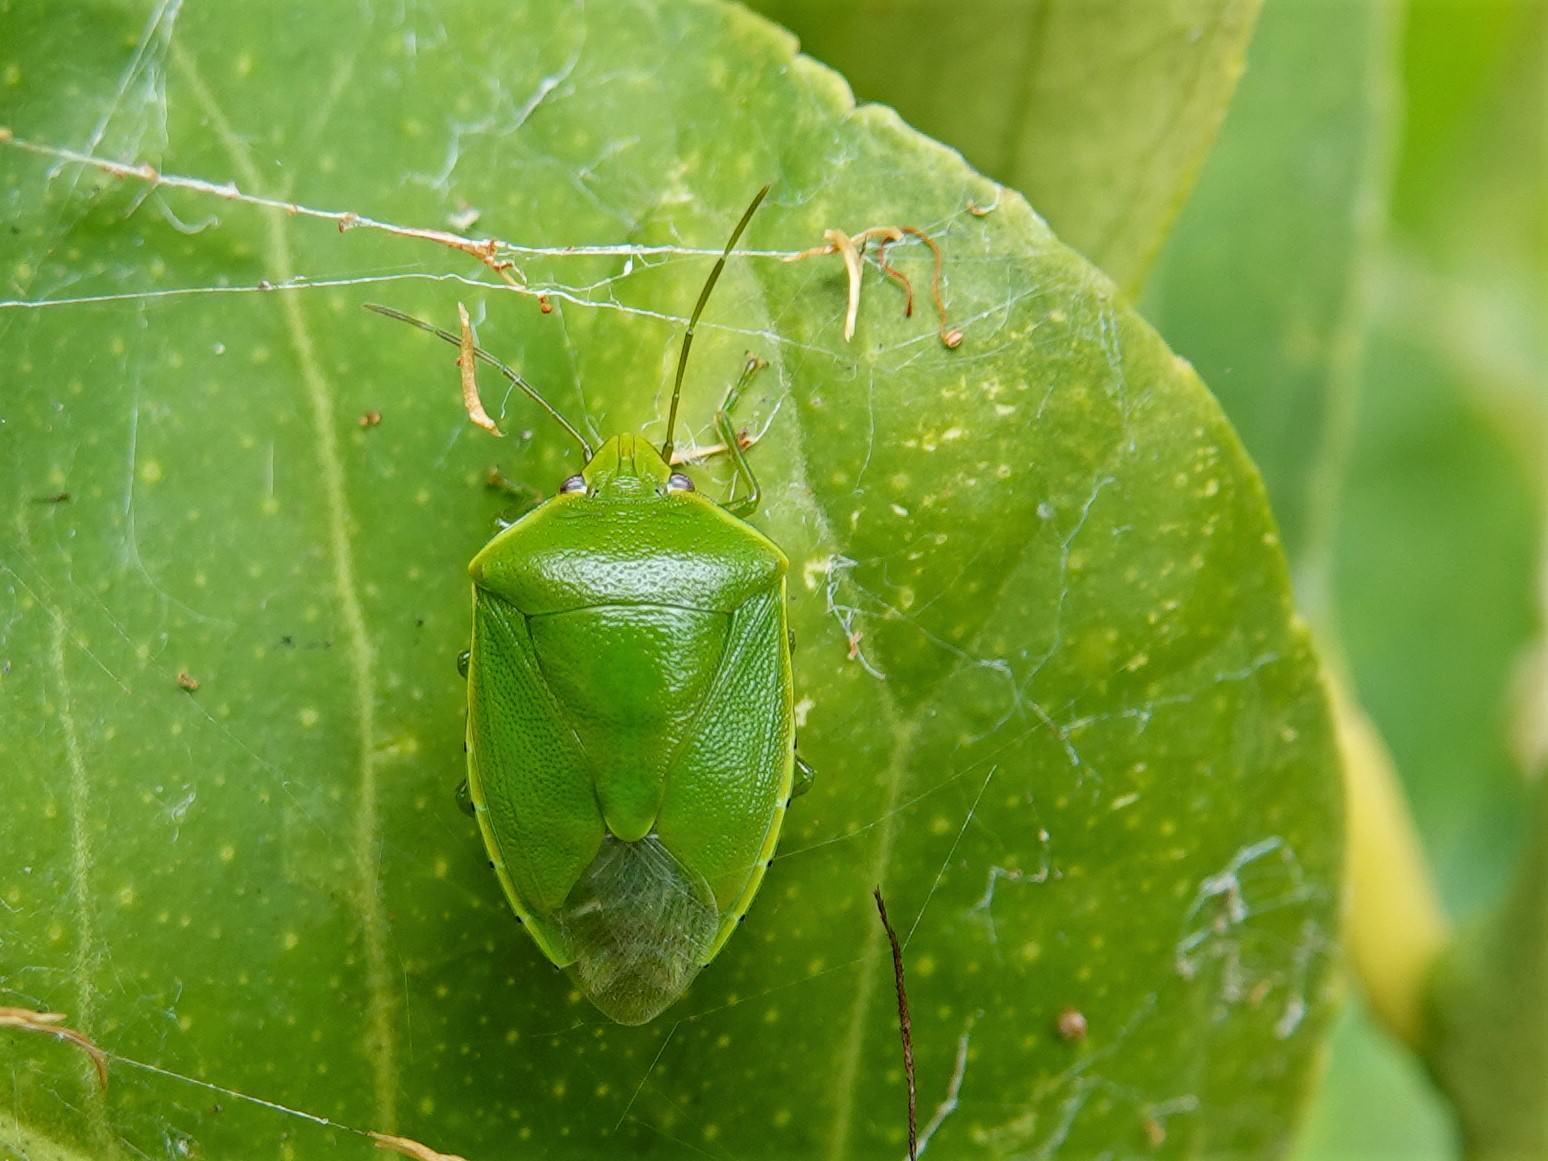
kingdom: Animalia
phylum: Arthropoda
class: Insecta
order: Hemiptera
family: Pentatomidae
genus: Glaucias
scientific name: Glaucias amyota
